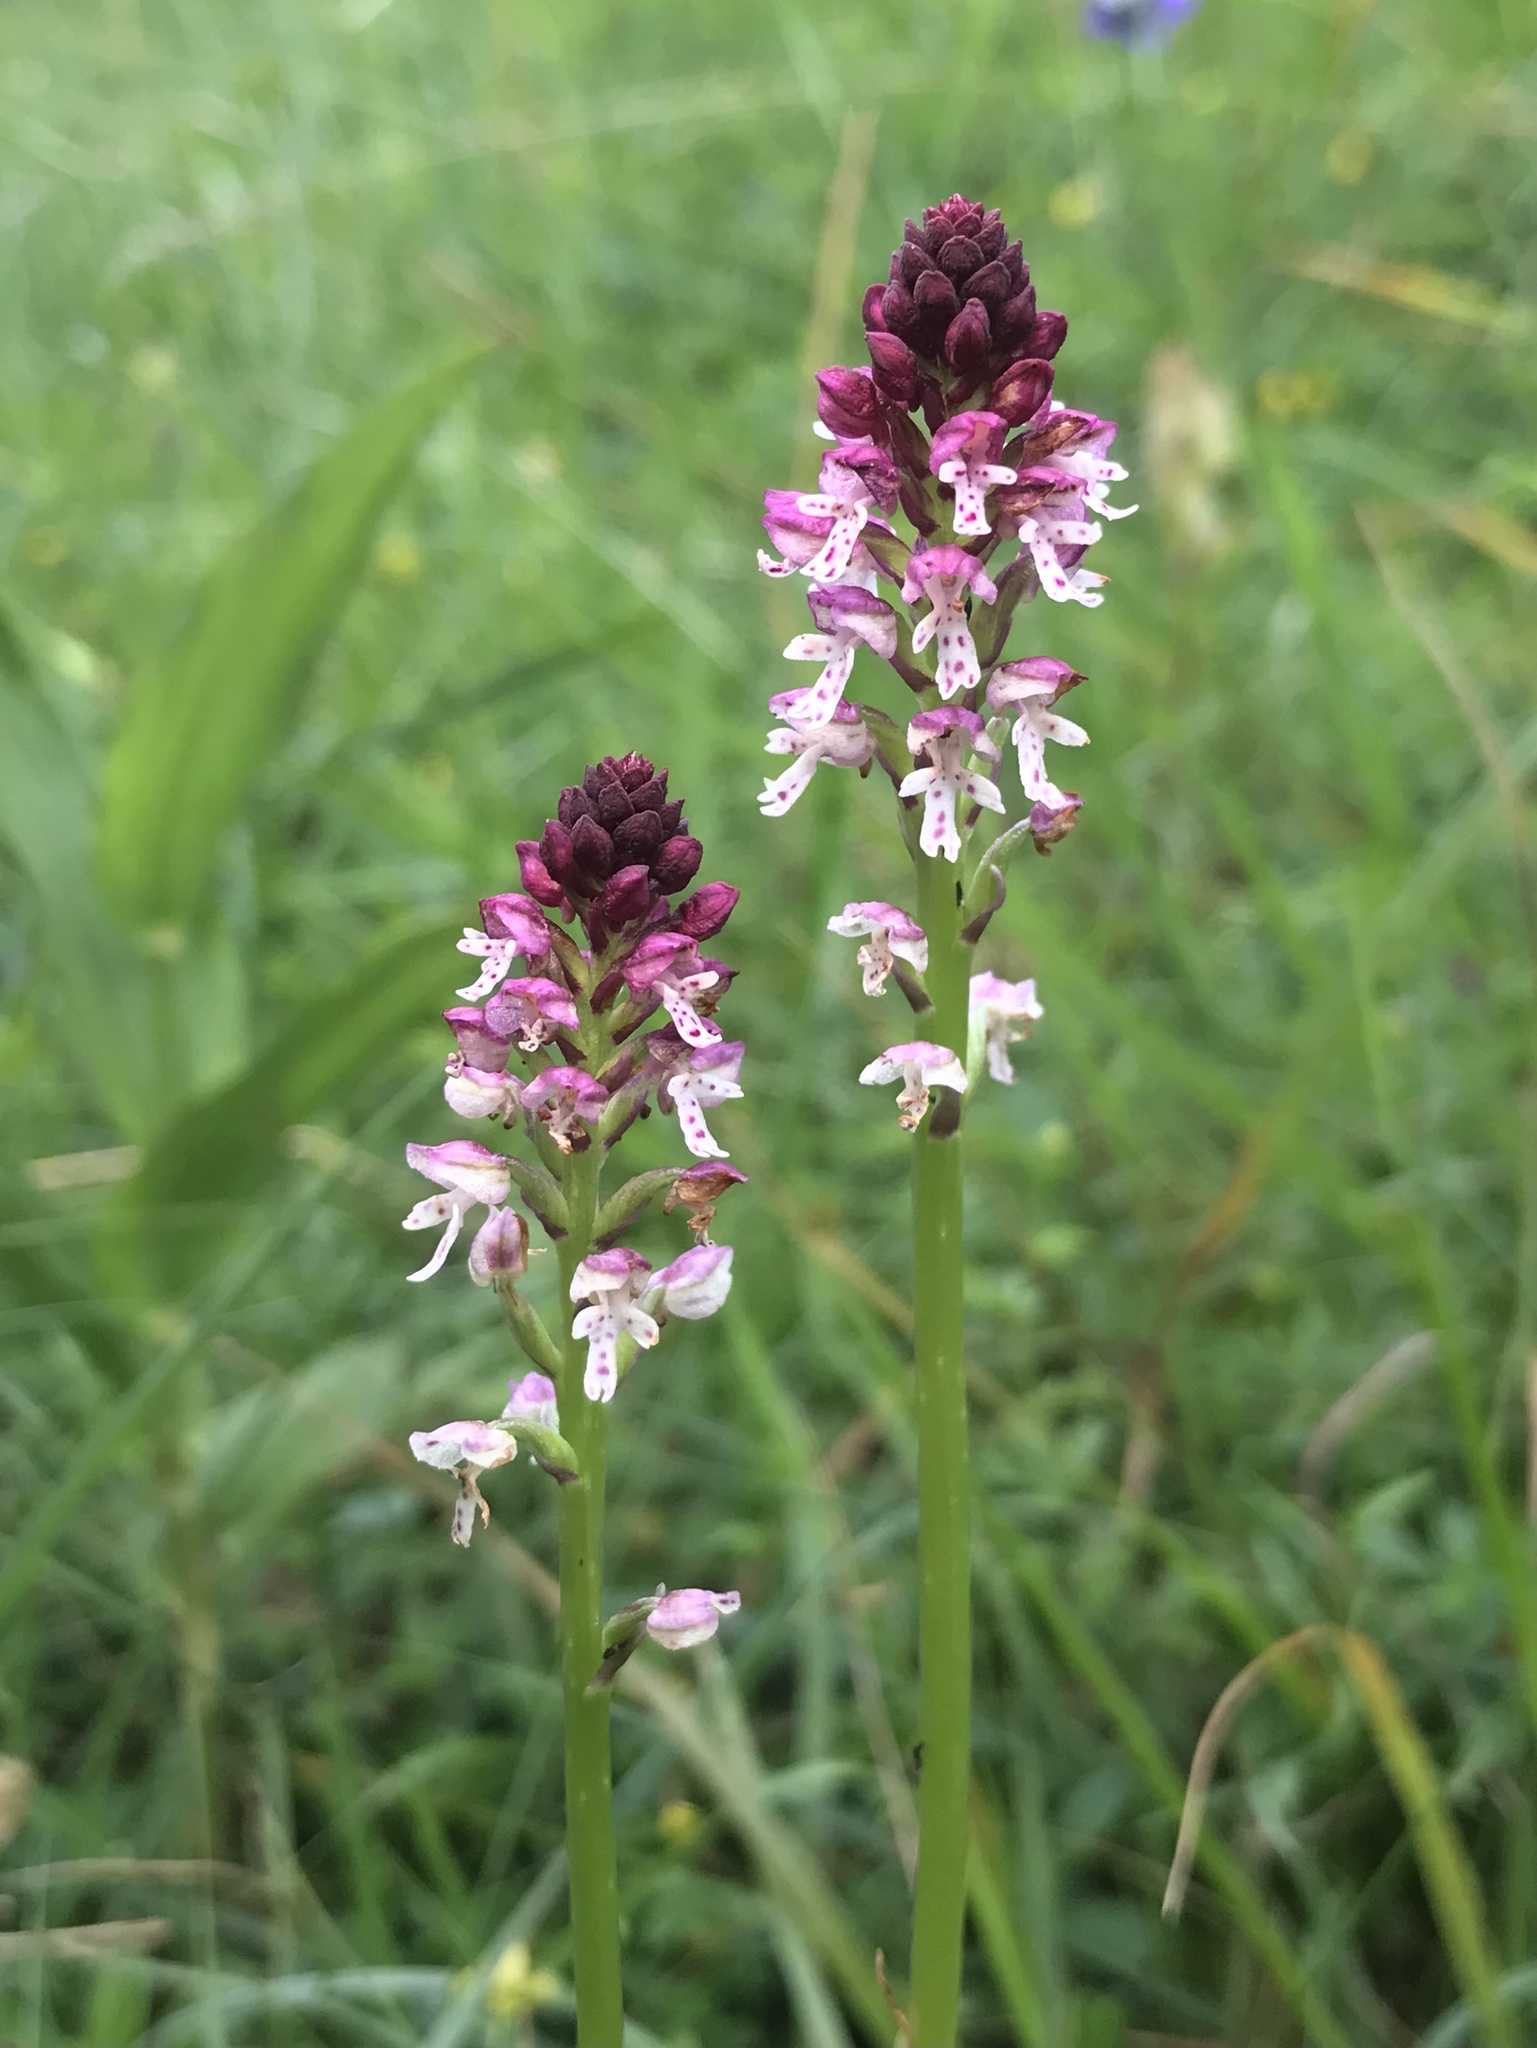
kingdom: Plantae
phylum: Tracheophyta
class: Liliopsida
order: Asparagales
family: Orchidaceae
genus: Neotinea
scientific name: Neotinea ustulata
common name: Burnt orchid
